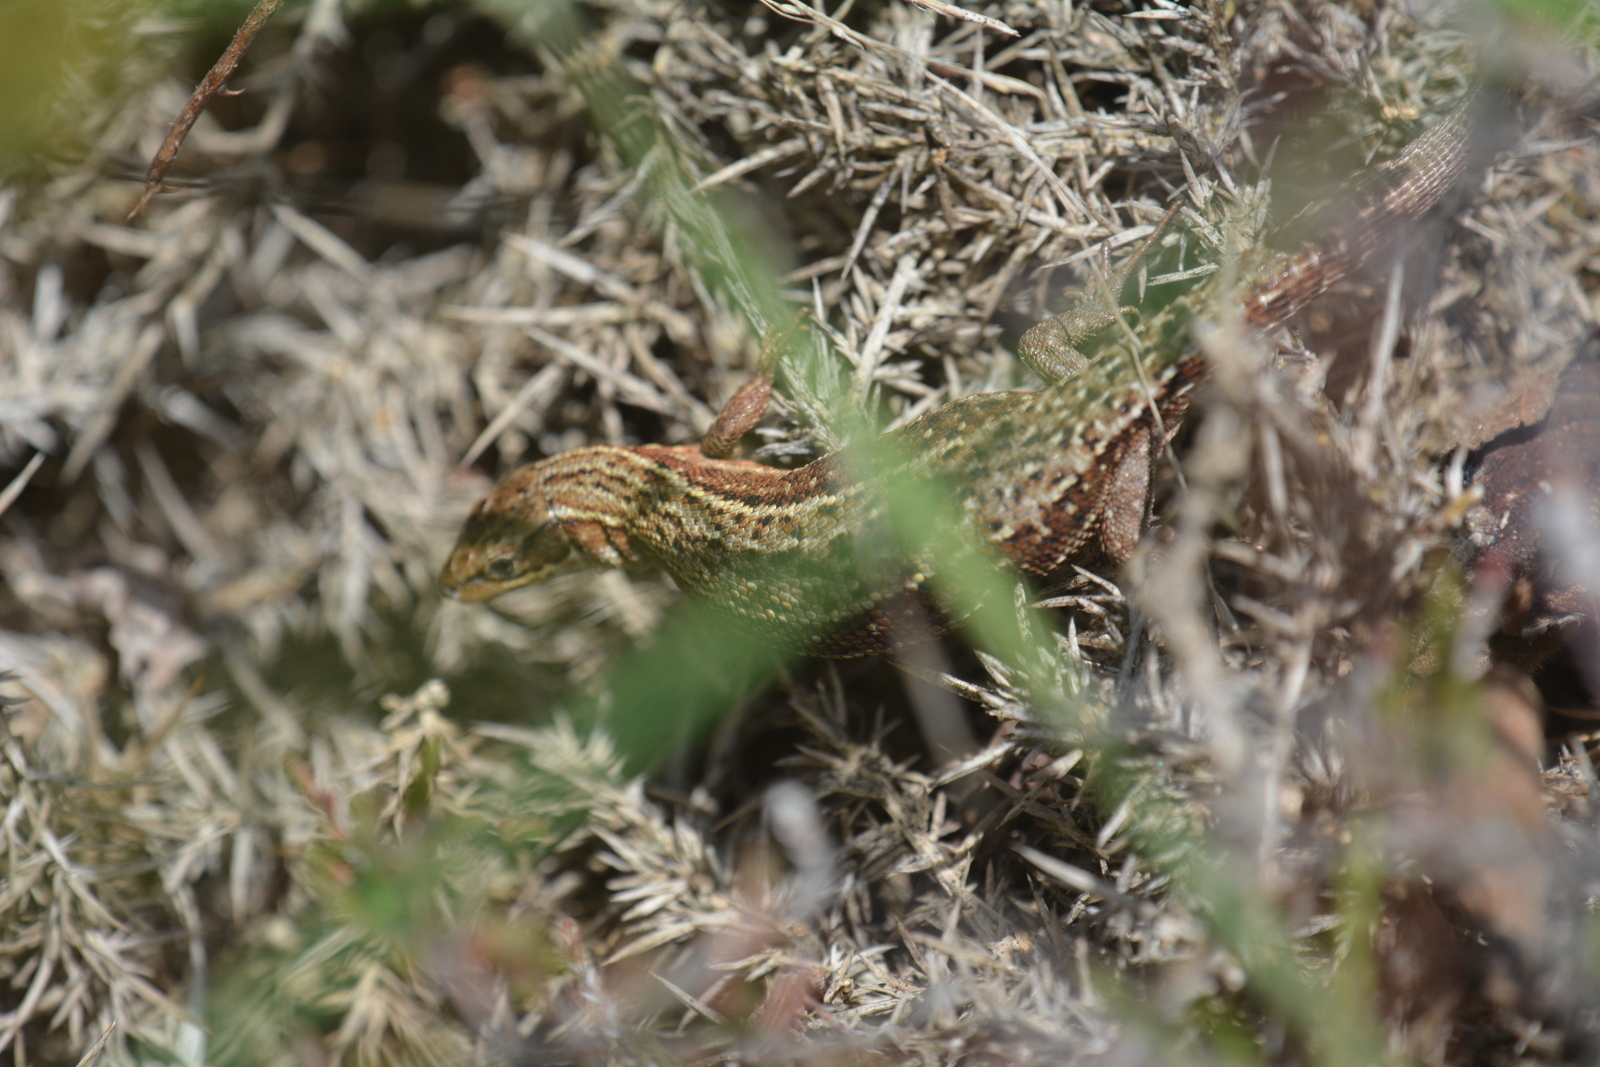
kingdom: Animalia
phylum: Chordata
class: Squamata
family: Lacertidae
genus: Zootoca
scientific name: Zootoca vivipara
